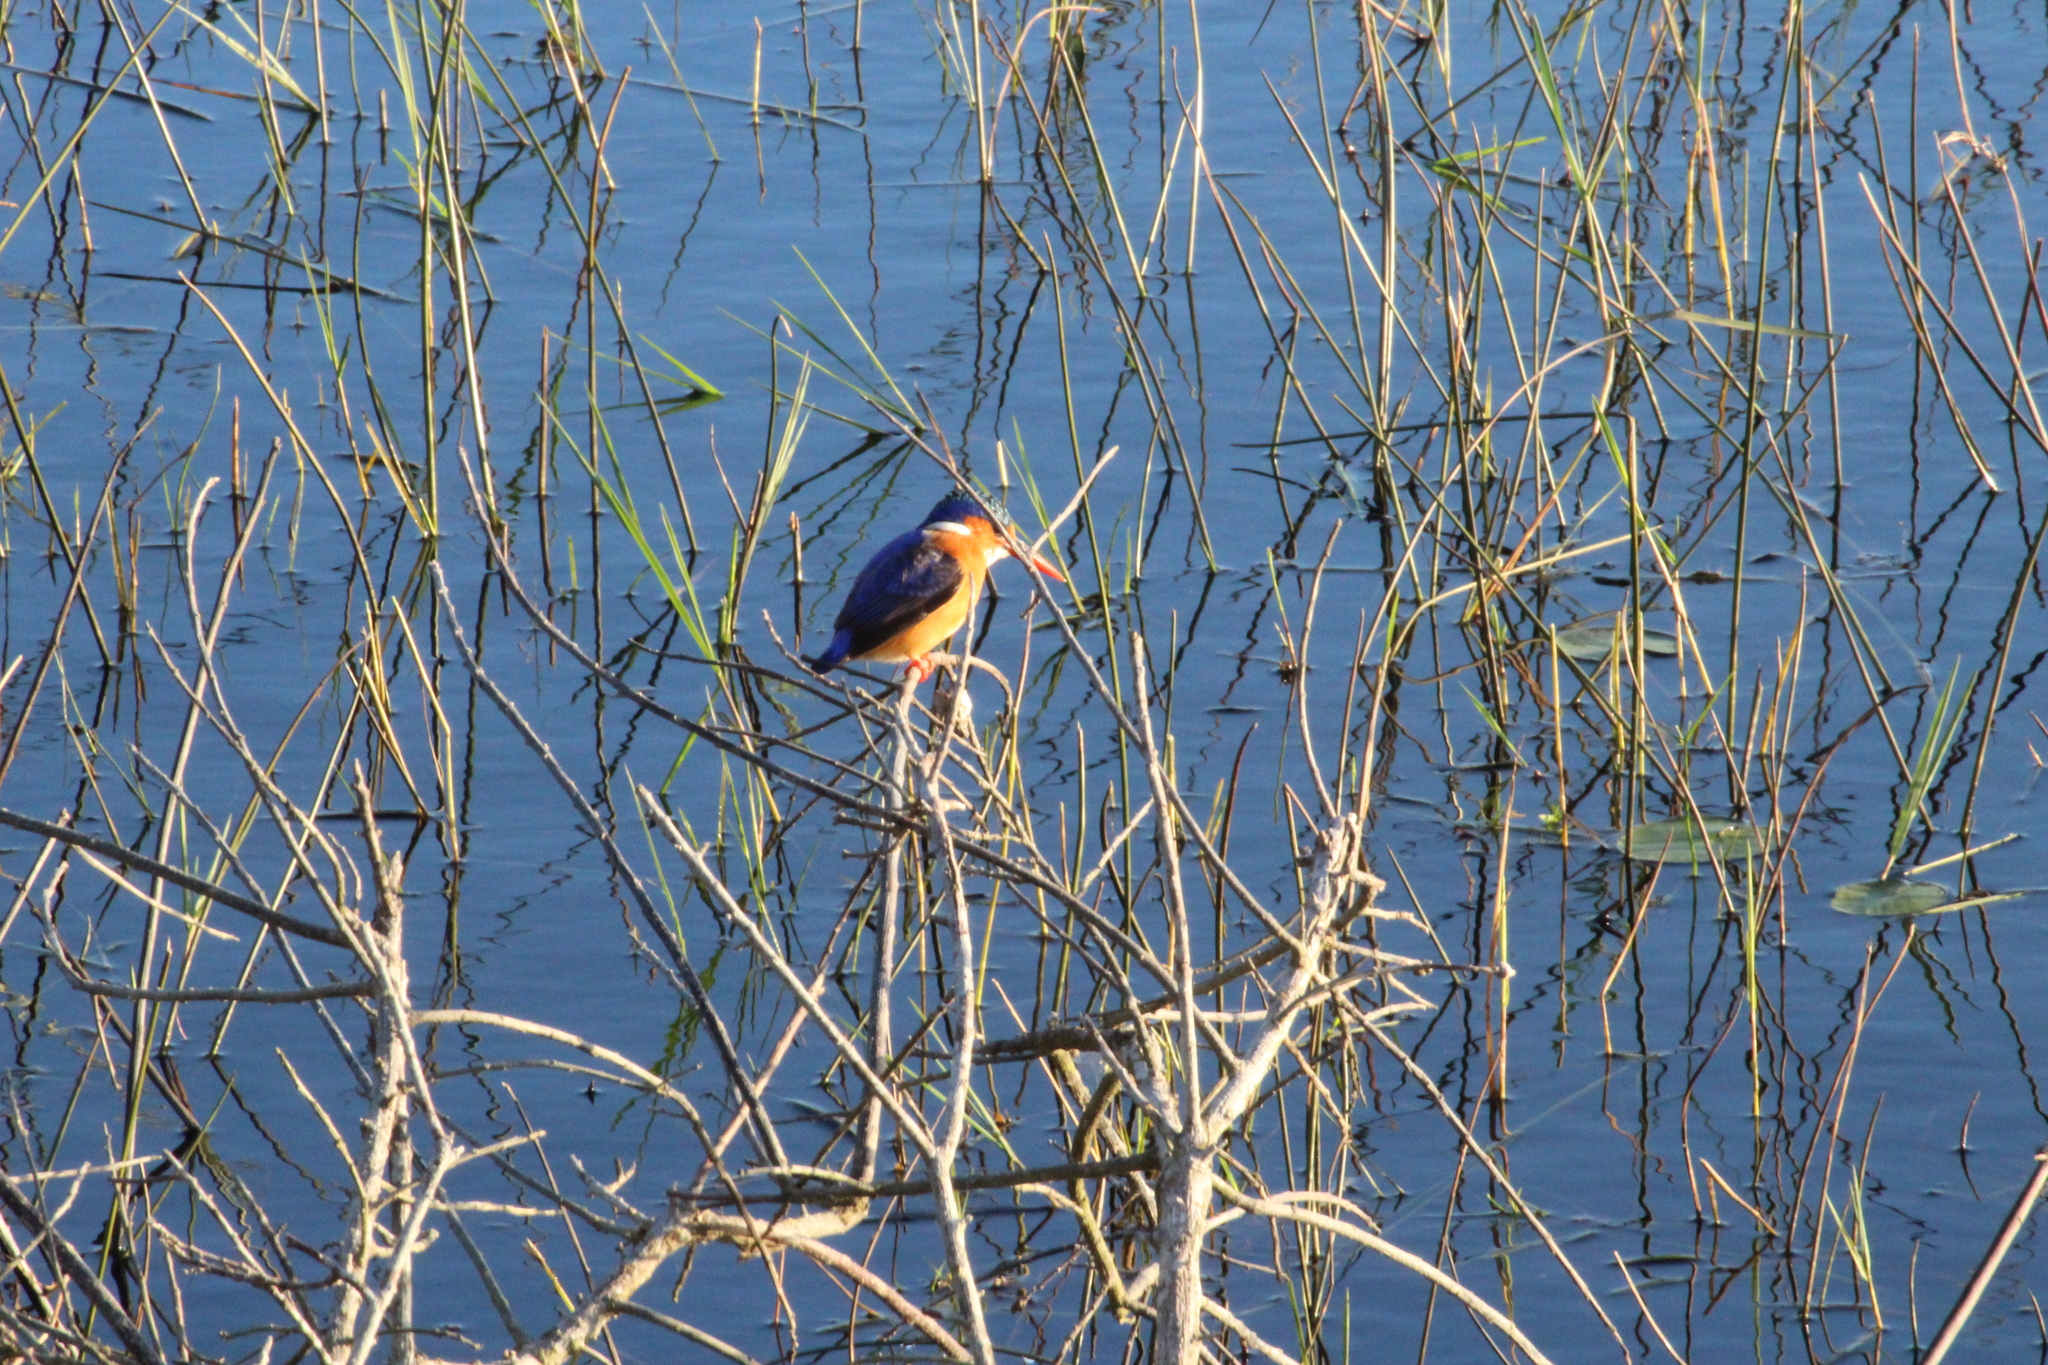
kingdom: Animalia
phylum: Chordata
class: Aves
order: Coraciiformes
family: Alcedinidae
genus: Corythornis
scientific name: Corythornis cristatus
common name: Malachite kingfisher
